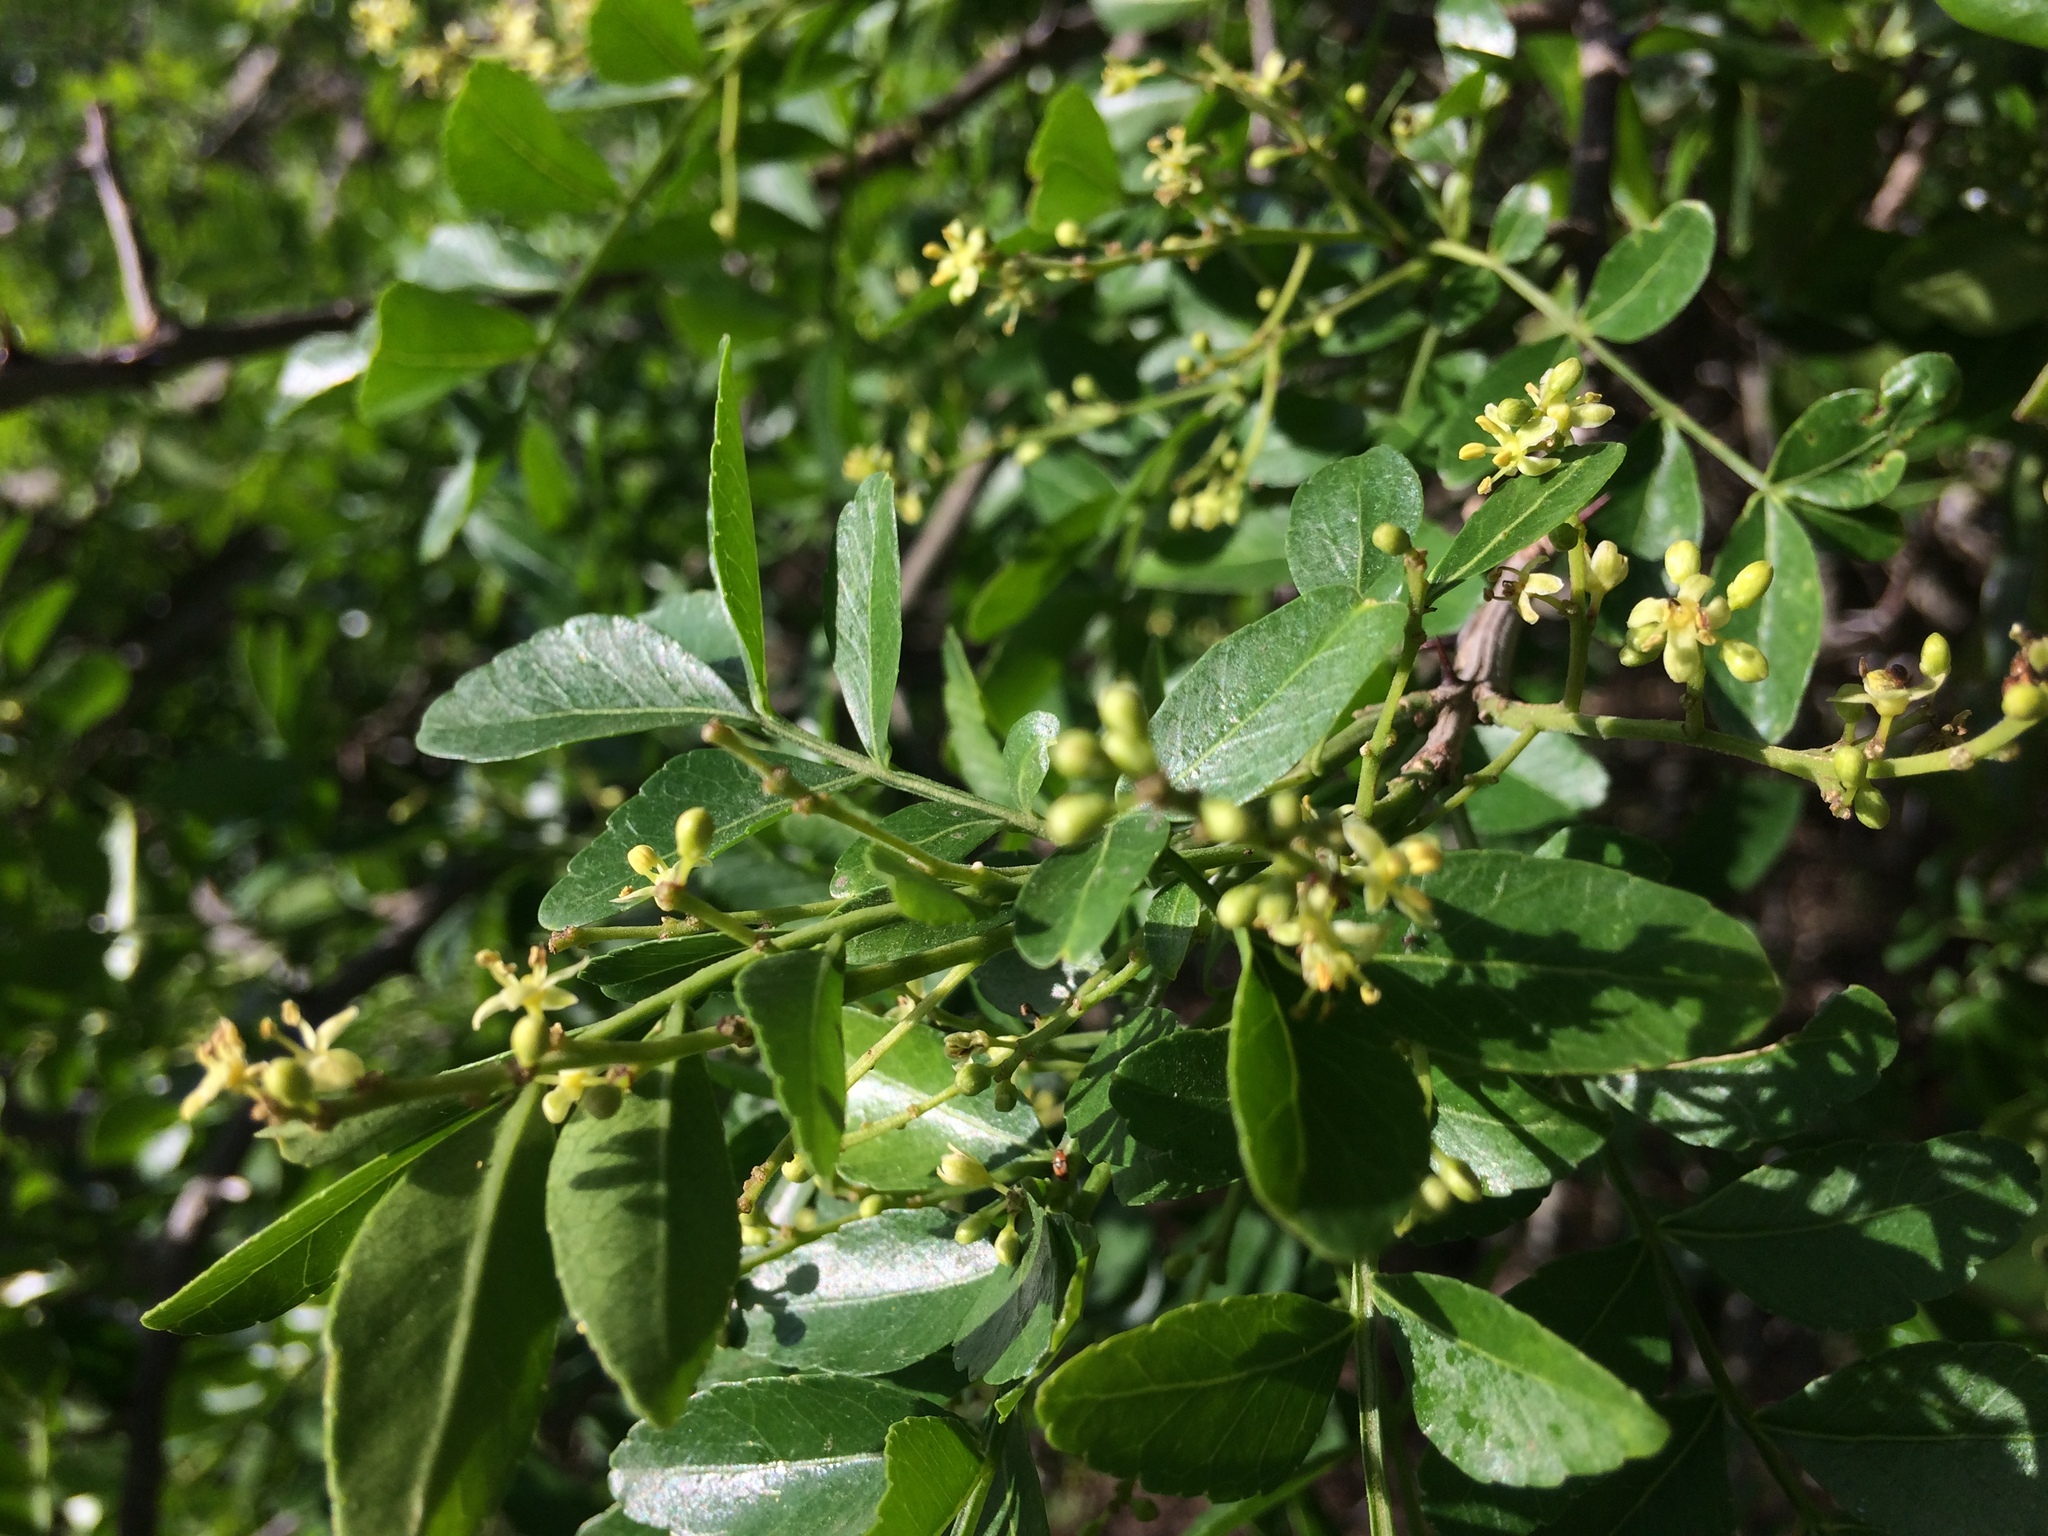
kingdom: Plantae
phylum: Tracheophyta
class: Magnoliopsida
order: Sapindales
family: Rutaceae
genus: Zanthoxylum
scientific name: Zanthoxylum capense
